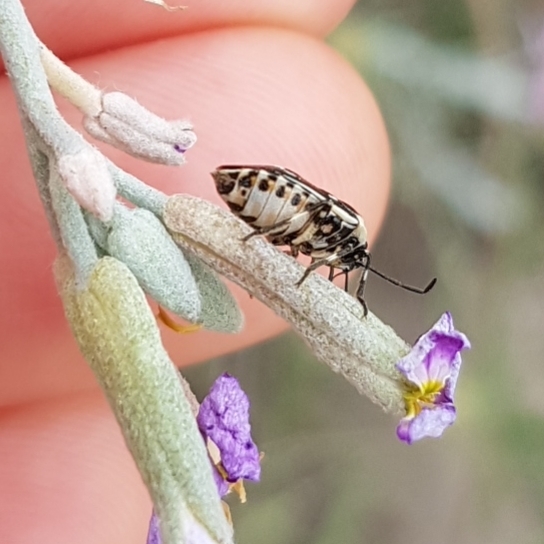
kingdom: Animalia
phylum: Arthropoda
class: Insecta
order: Hemiptera
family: Pentatomidae
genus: Eurydema
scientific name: Eurydema oleracea
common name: Cabbage bug
